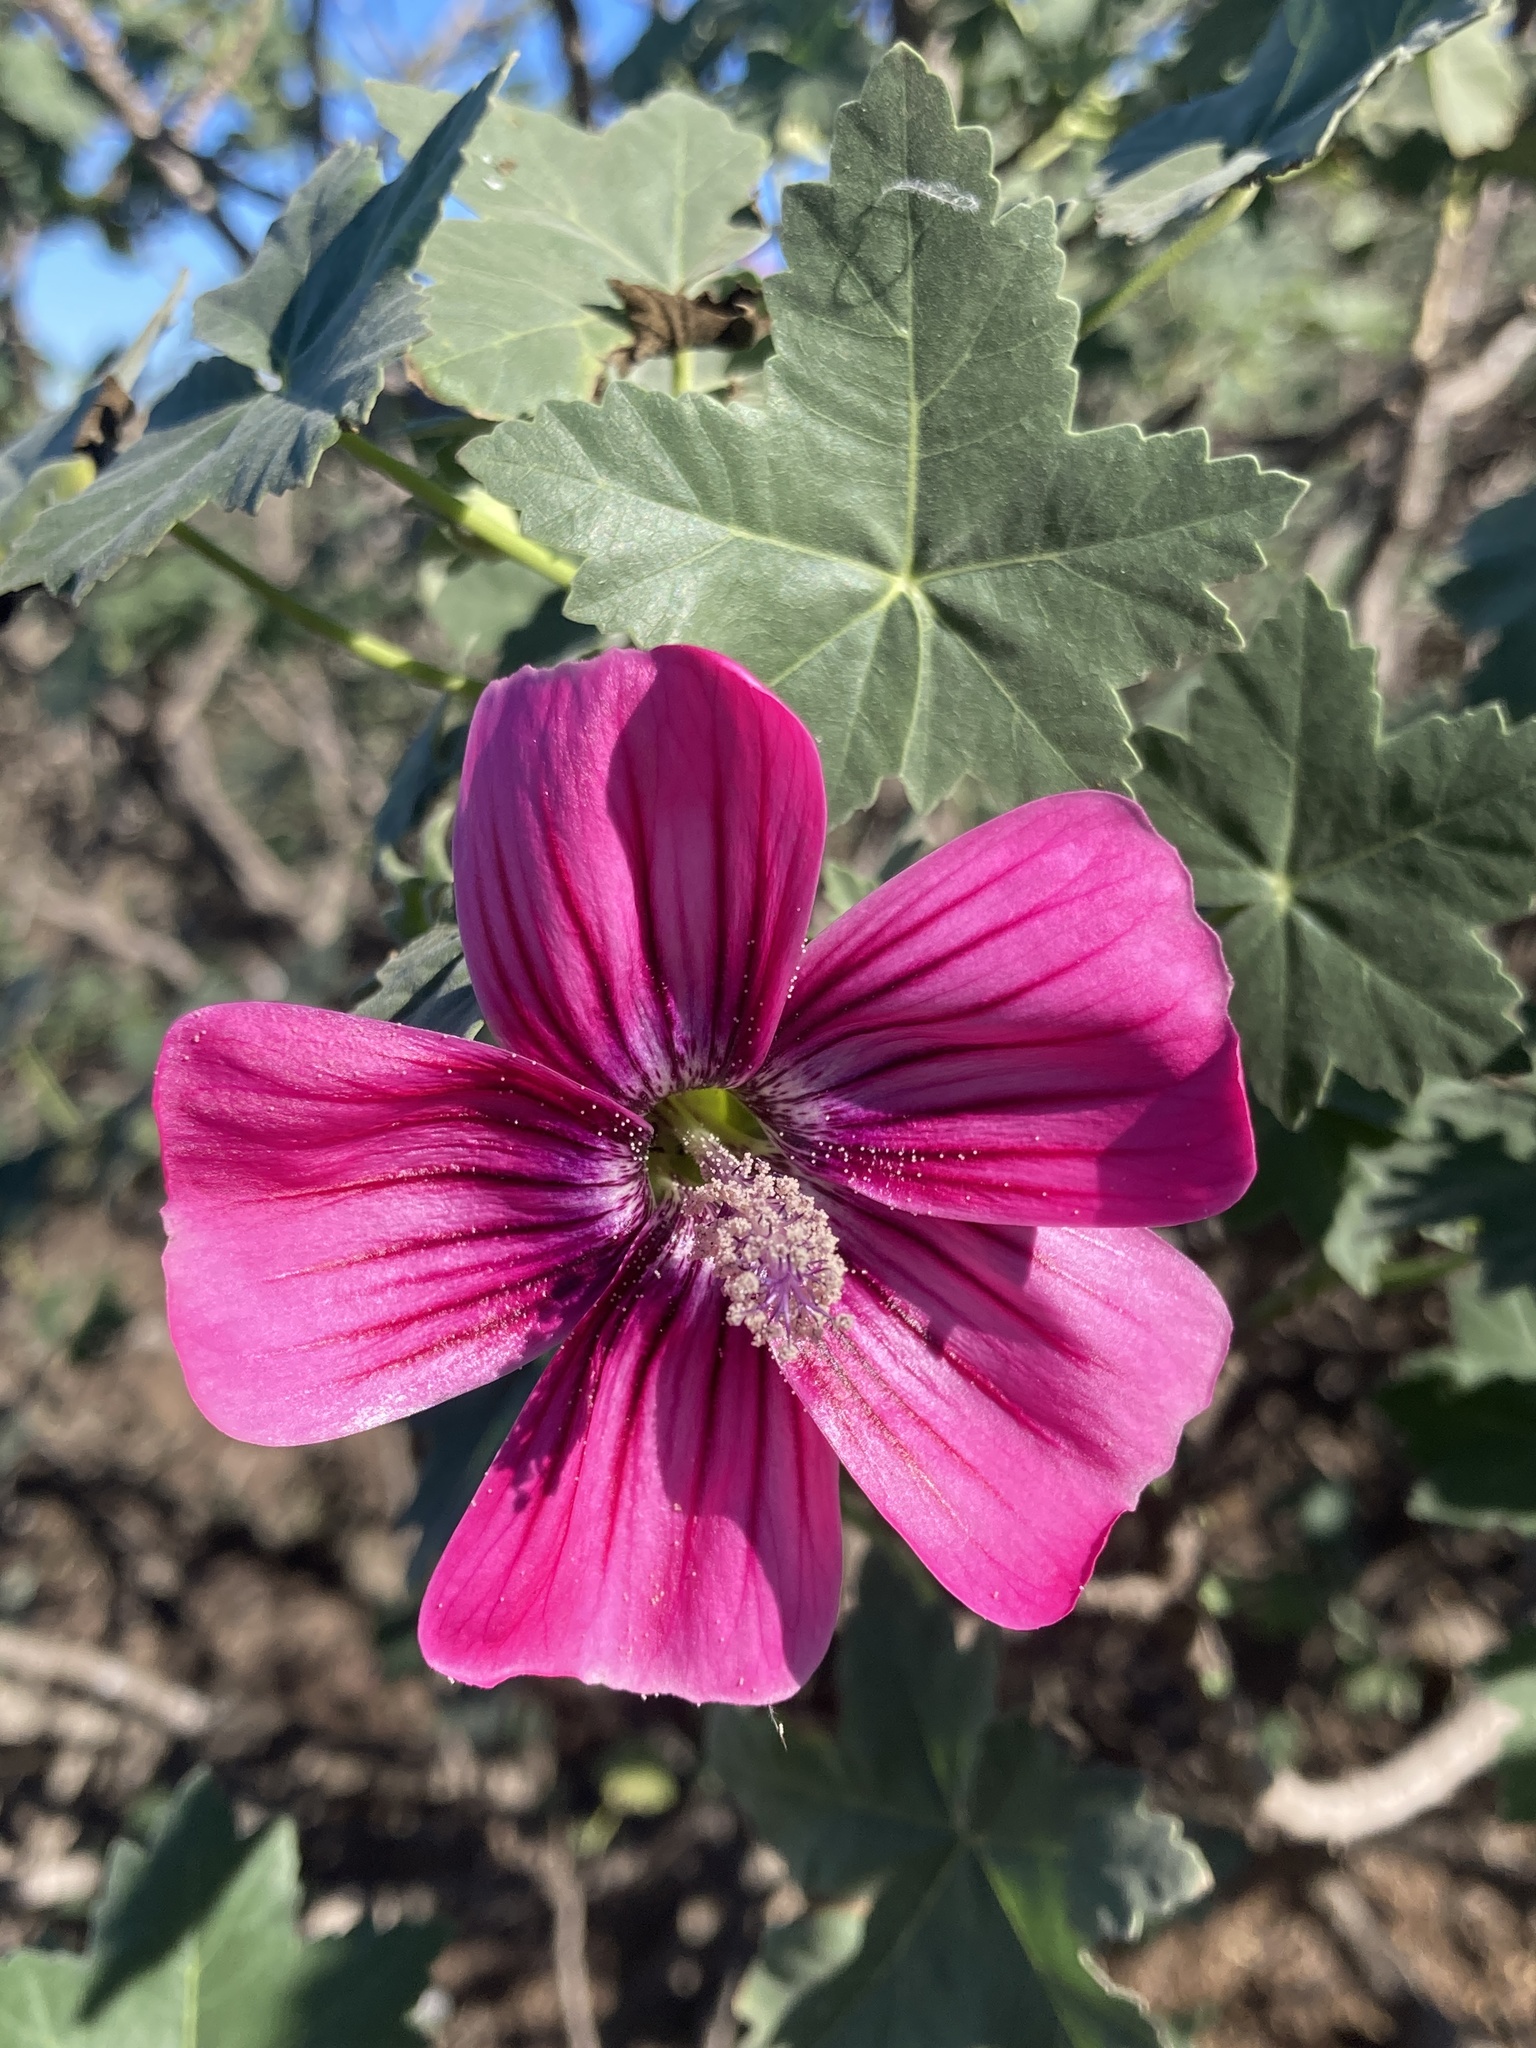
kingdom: Plantae
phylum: Tracheophyta
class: Magnoliopsida
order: Malvales
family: Malvaceae
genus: Malva
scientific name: Malva assurgentiflora
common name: Island mallow
